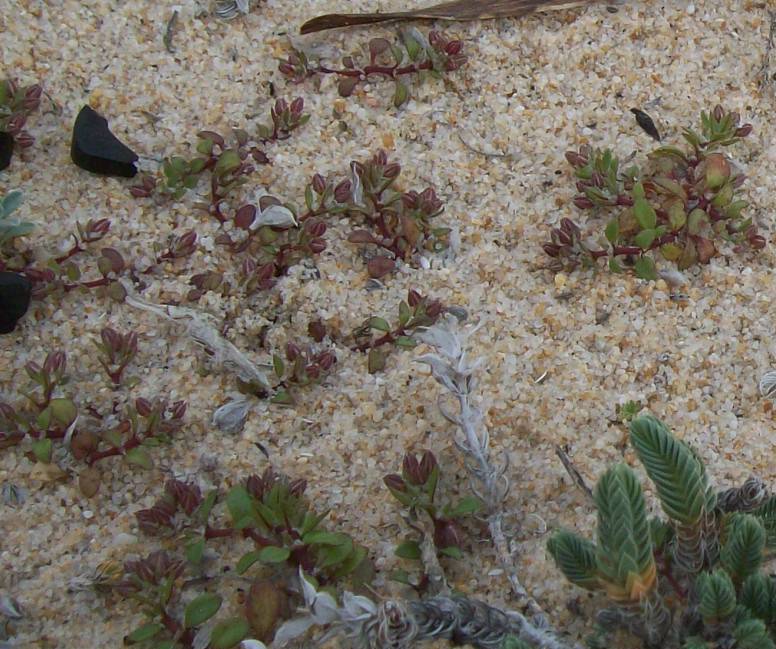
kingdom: Plantae
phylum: Tracheophyta
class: Magnoliopsida
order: Fabales
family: Fabaceae
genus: Lotus
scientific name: Lotus creticus
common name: Cretan bird's-foot trefoil
